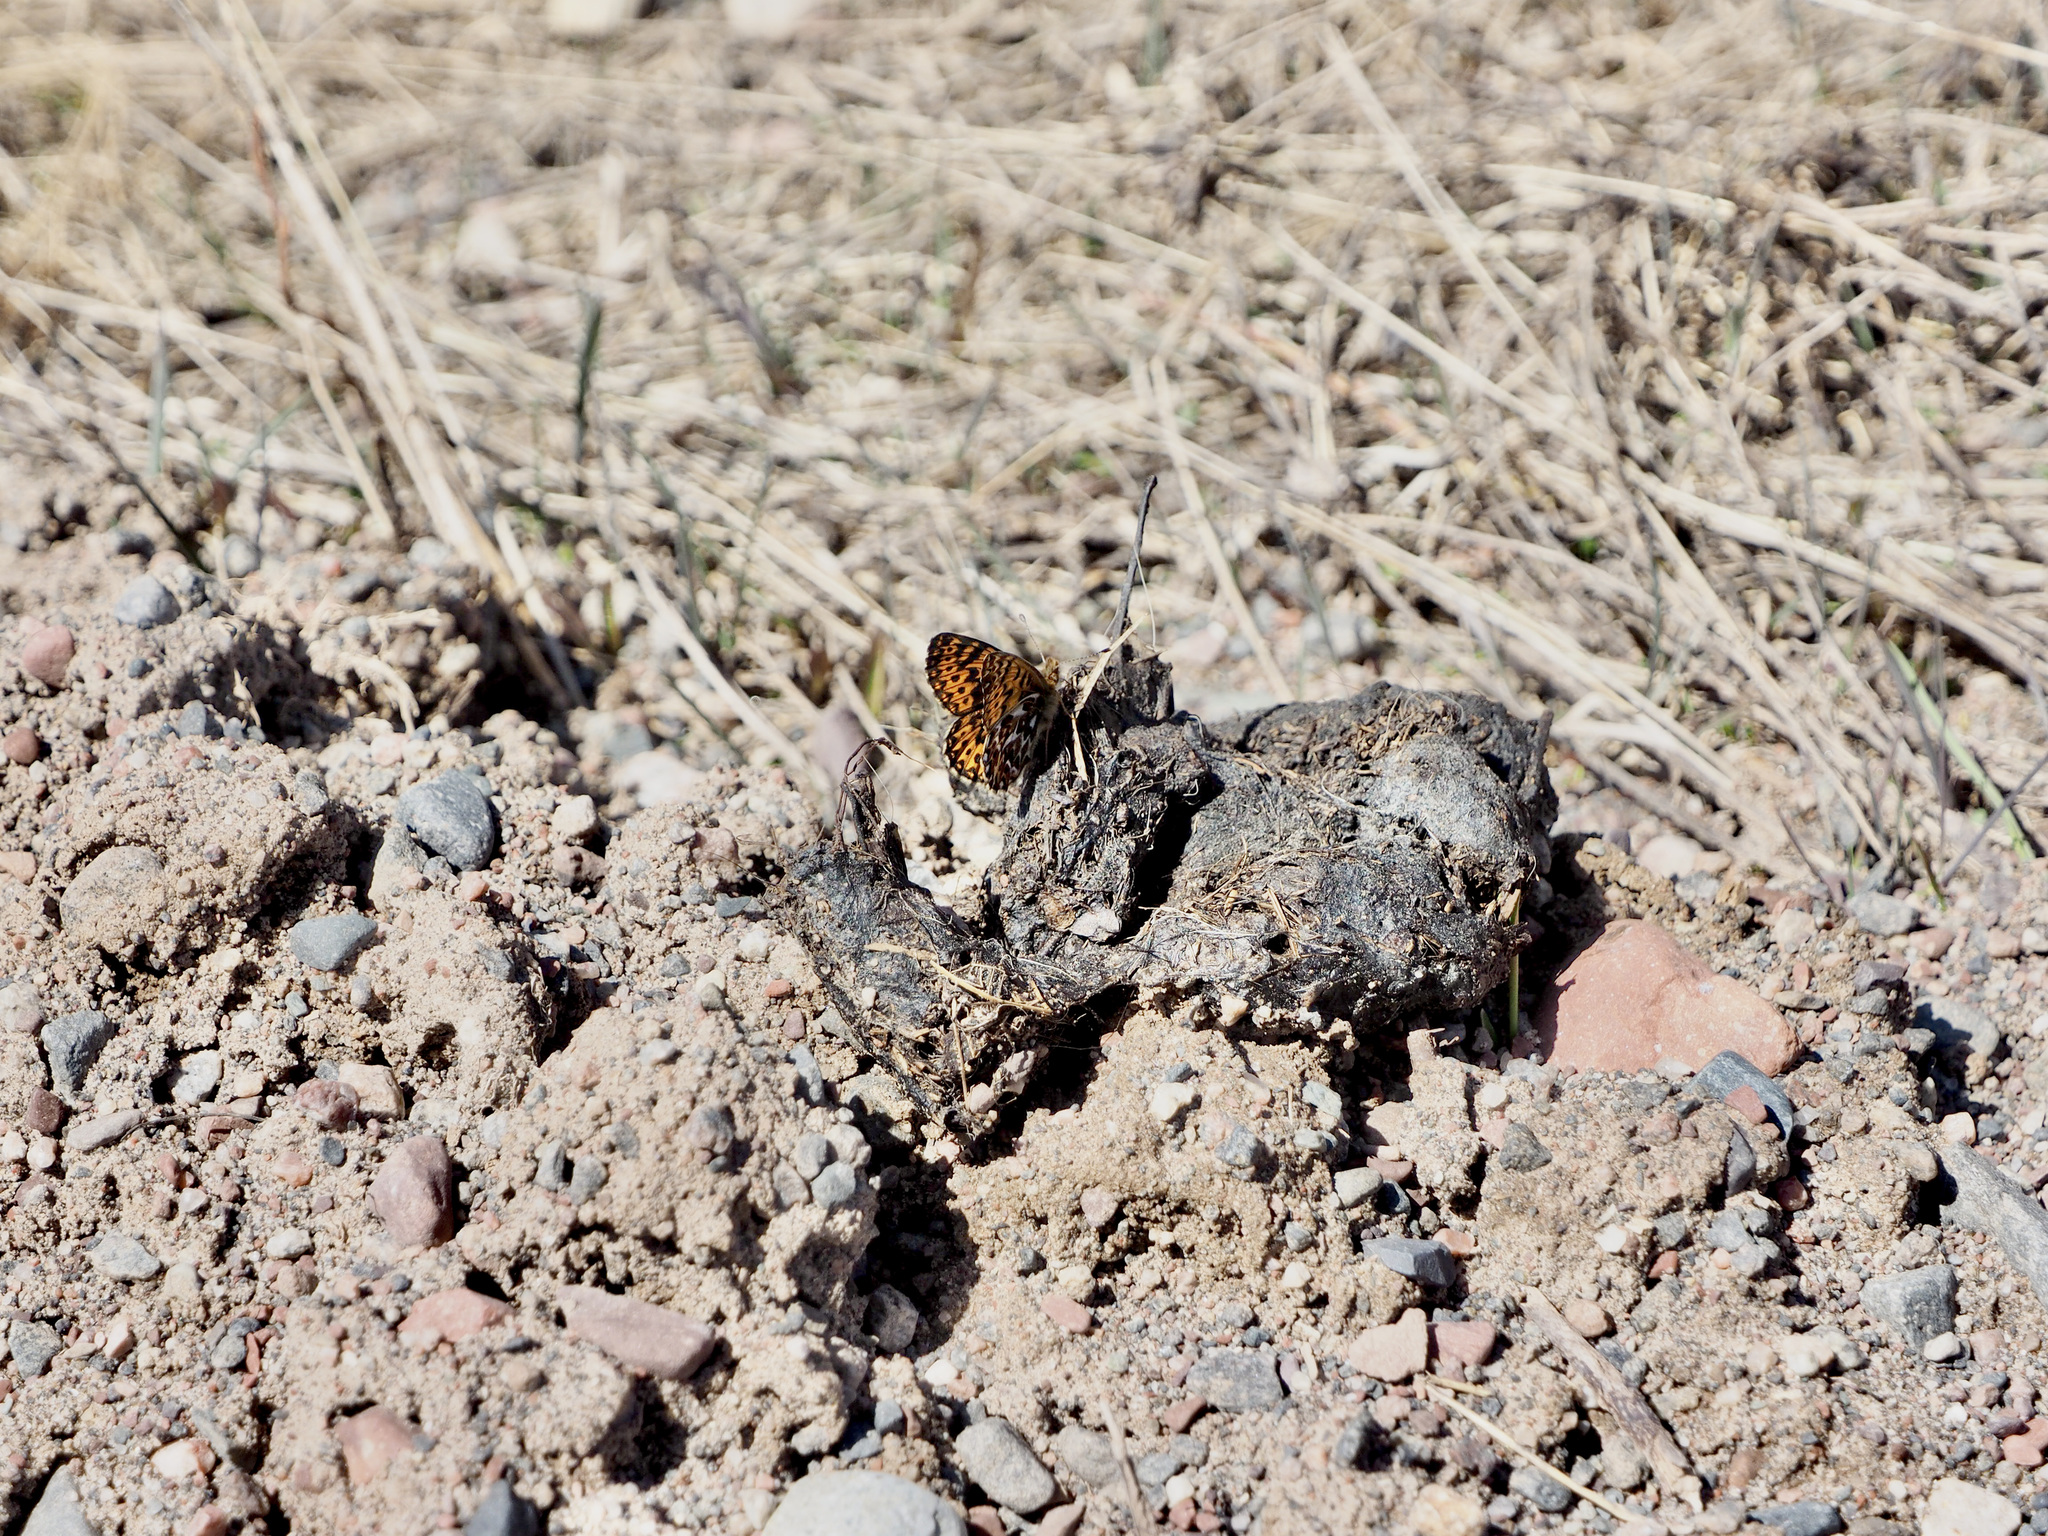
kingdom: Animalia
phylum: Arthropoda
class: Insecta
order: Lepidoptera
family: Nymphalidae
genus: Boloria
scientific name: Boloria freija
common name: Freija fritillary
